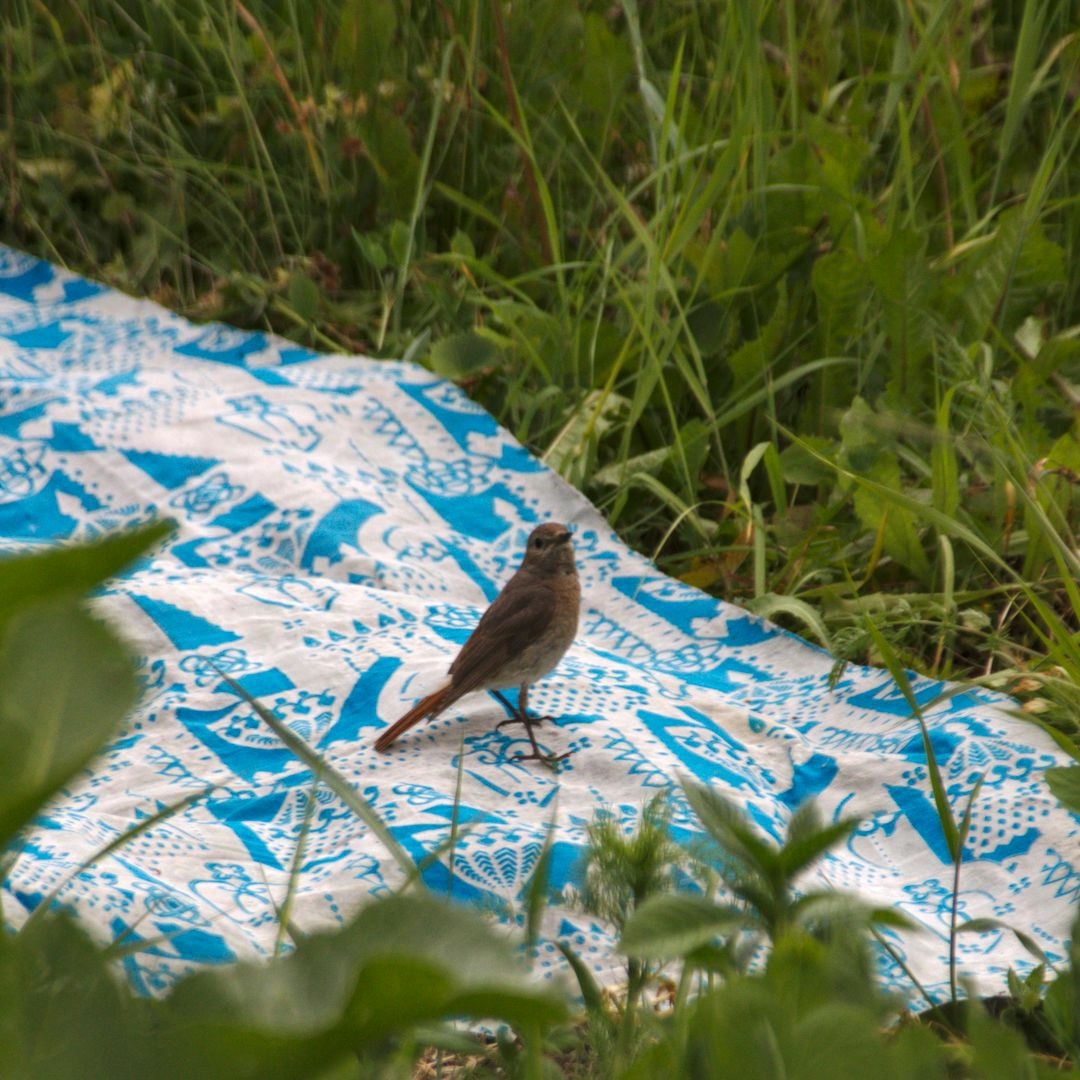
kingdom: Animalia
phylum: Chordata
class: Aves
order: Passeriformes
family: Muscicapidae
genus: Phoenicurus
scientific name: Phoenicurus phoenicurus
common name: Common redstart
